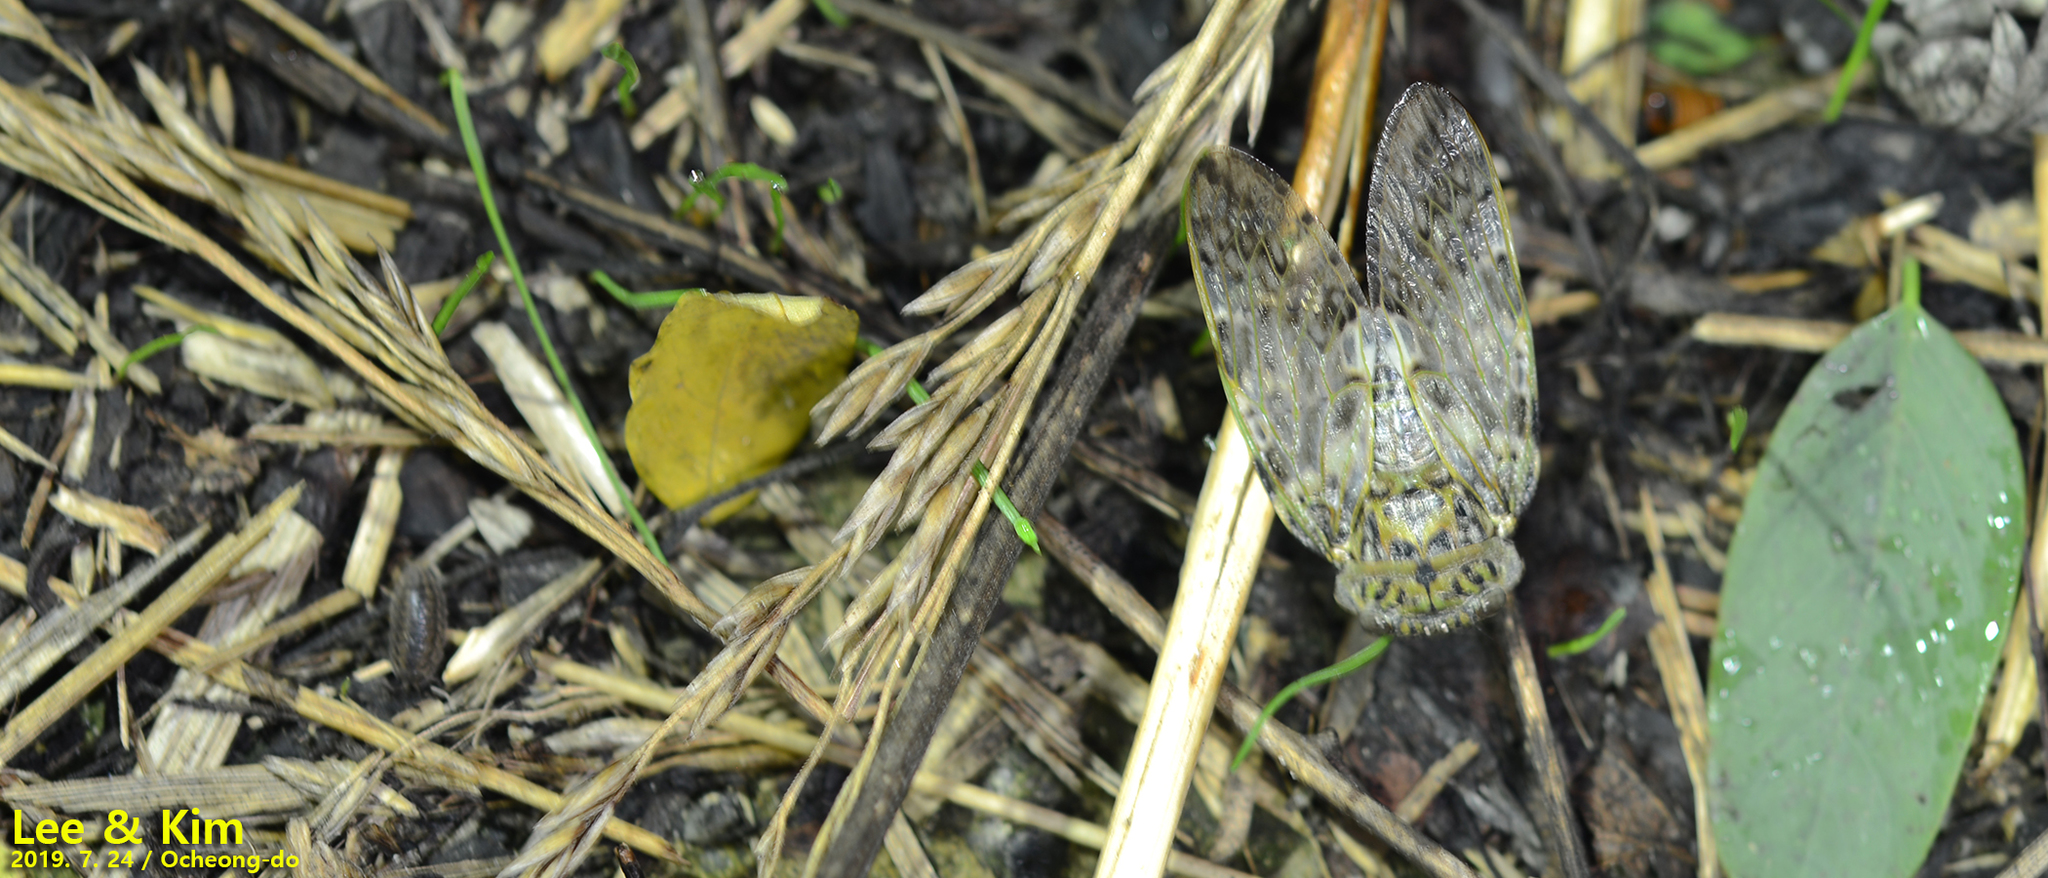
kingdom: Animalia
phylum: Arthropoda
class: Insecta
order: Hemiptera
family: Cicadidae
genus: Platypleura
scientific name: Platypleura kaempferi
